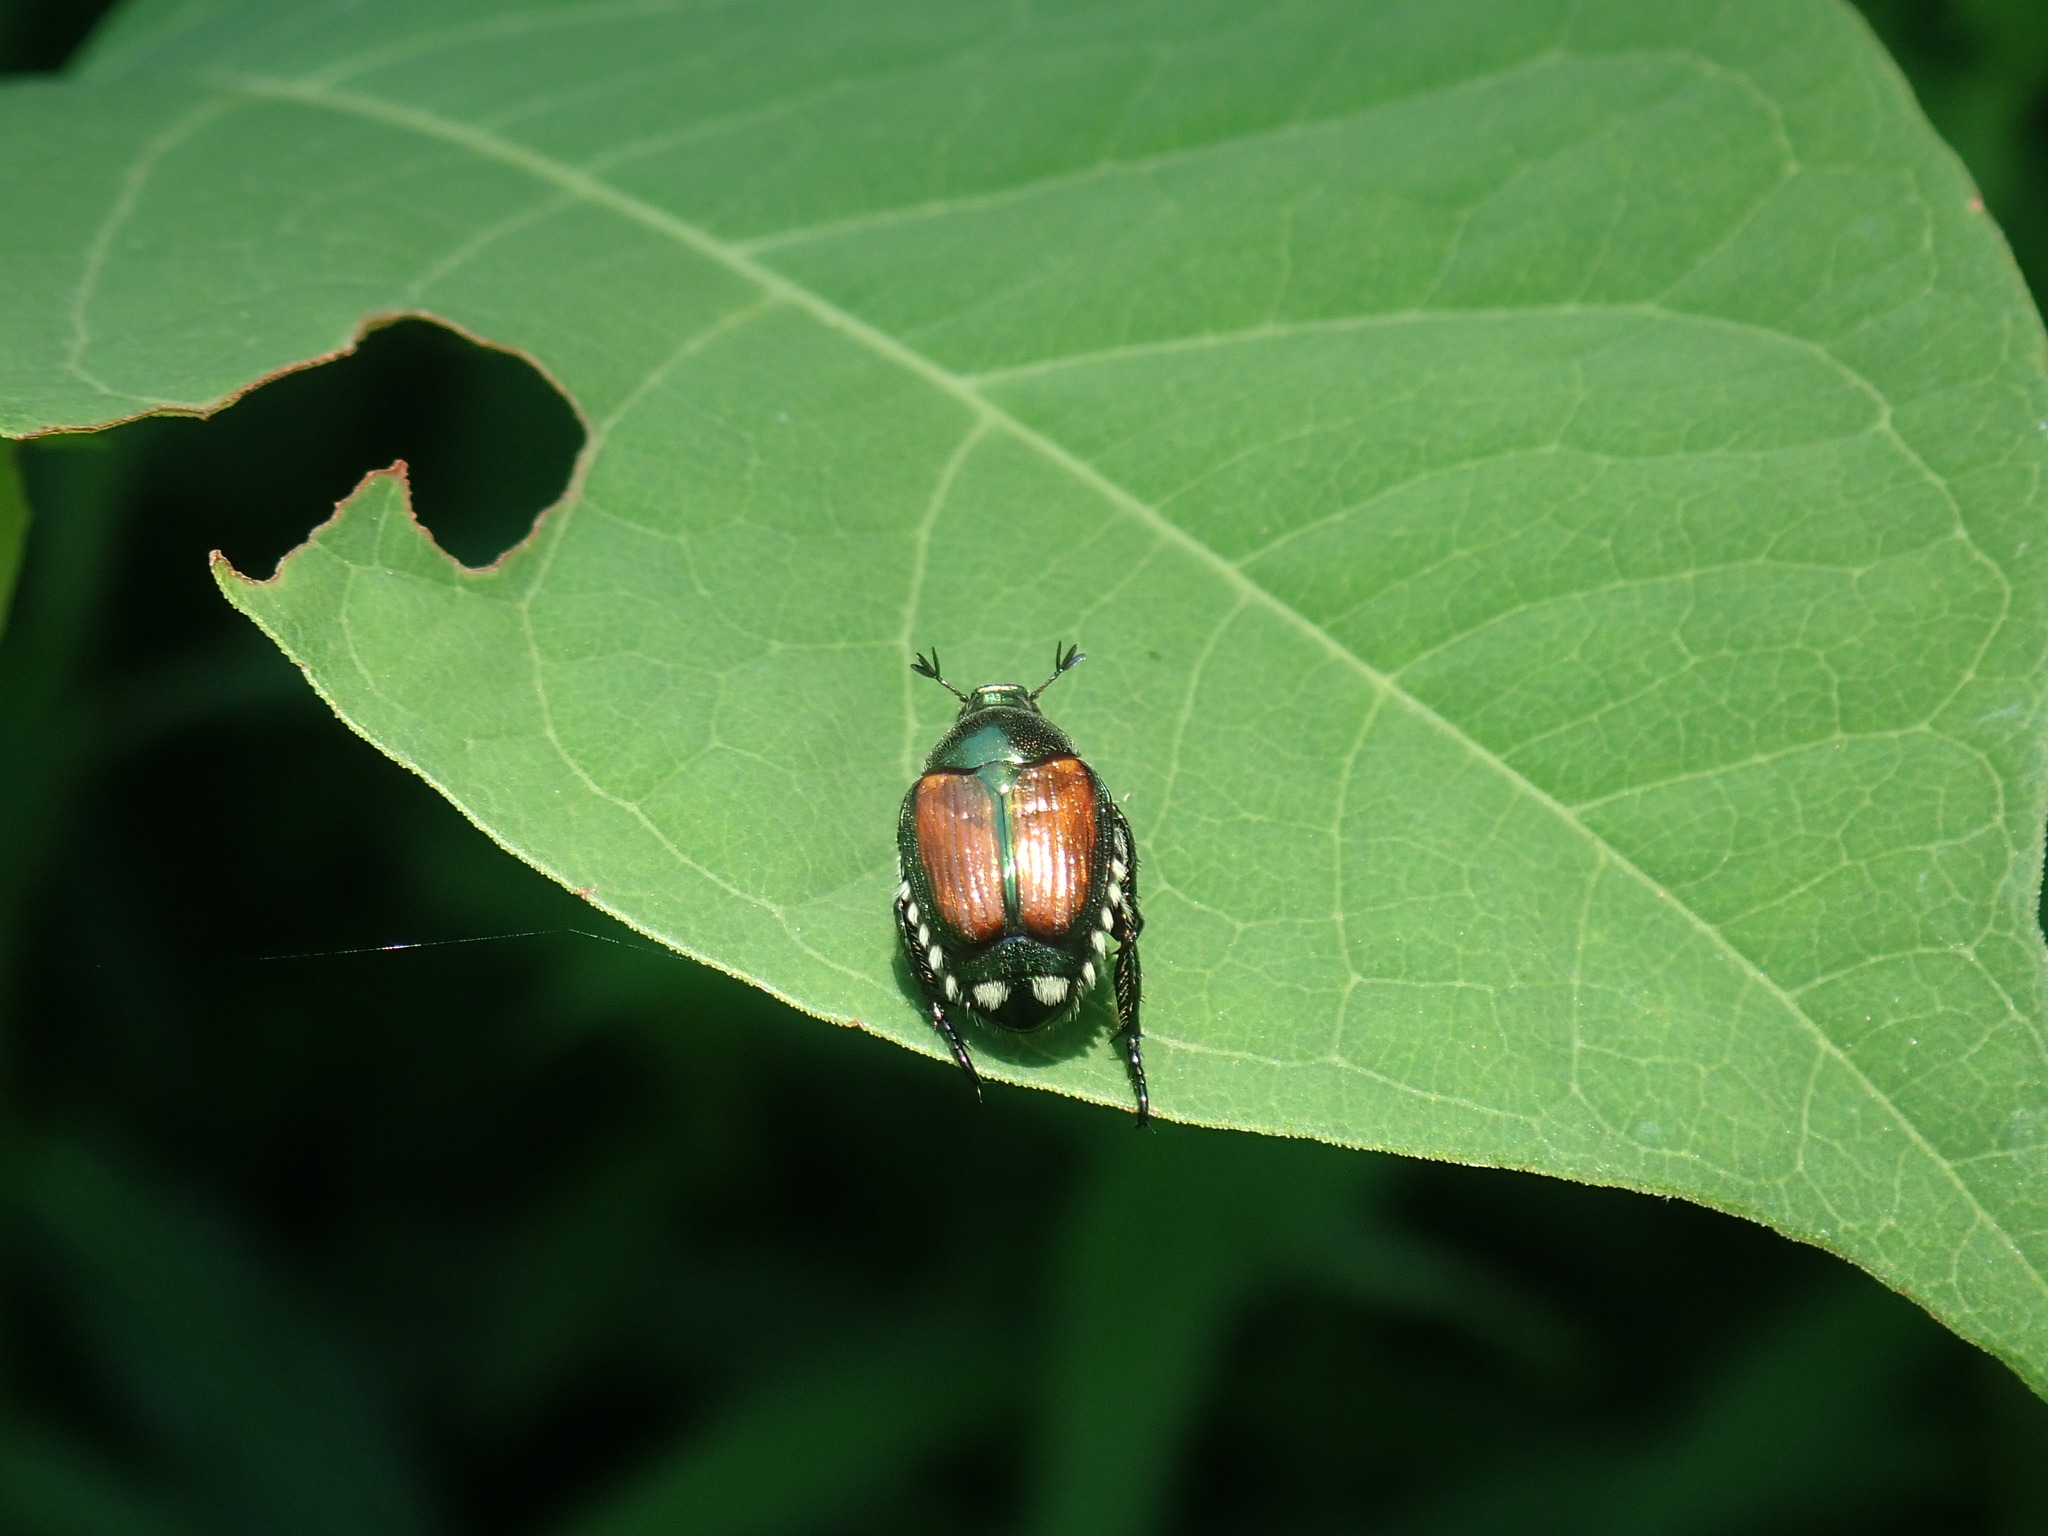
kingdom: Animalia
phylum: Arthropoda
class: Insecta
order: Coleoptera
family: Scarabaeidae
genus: Popillia
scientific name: Popillia japonica
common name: Japanese beetle
